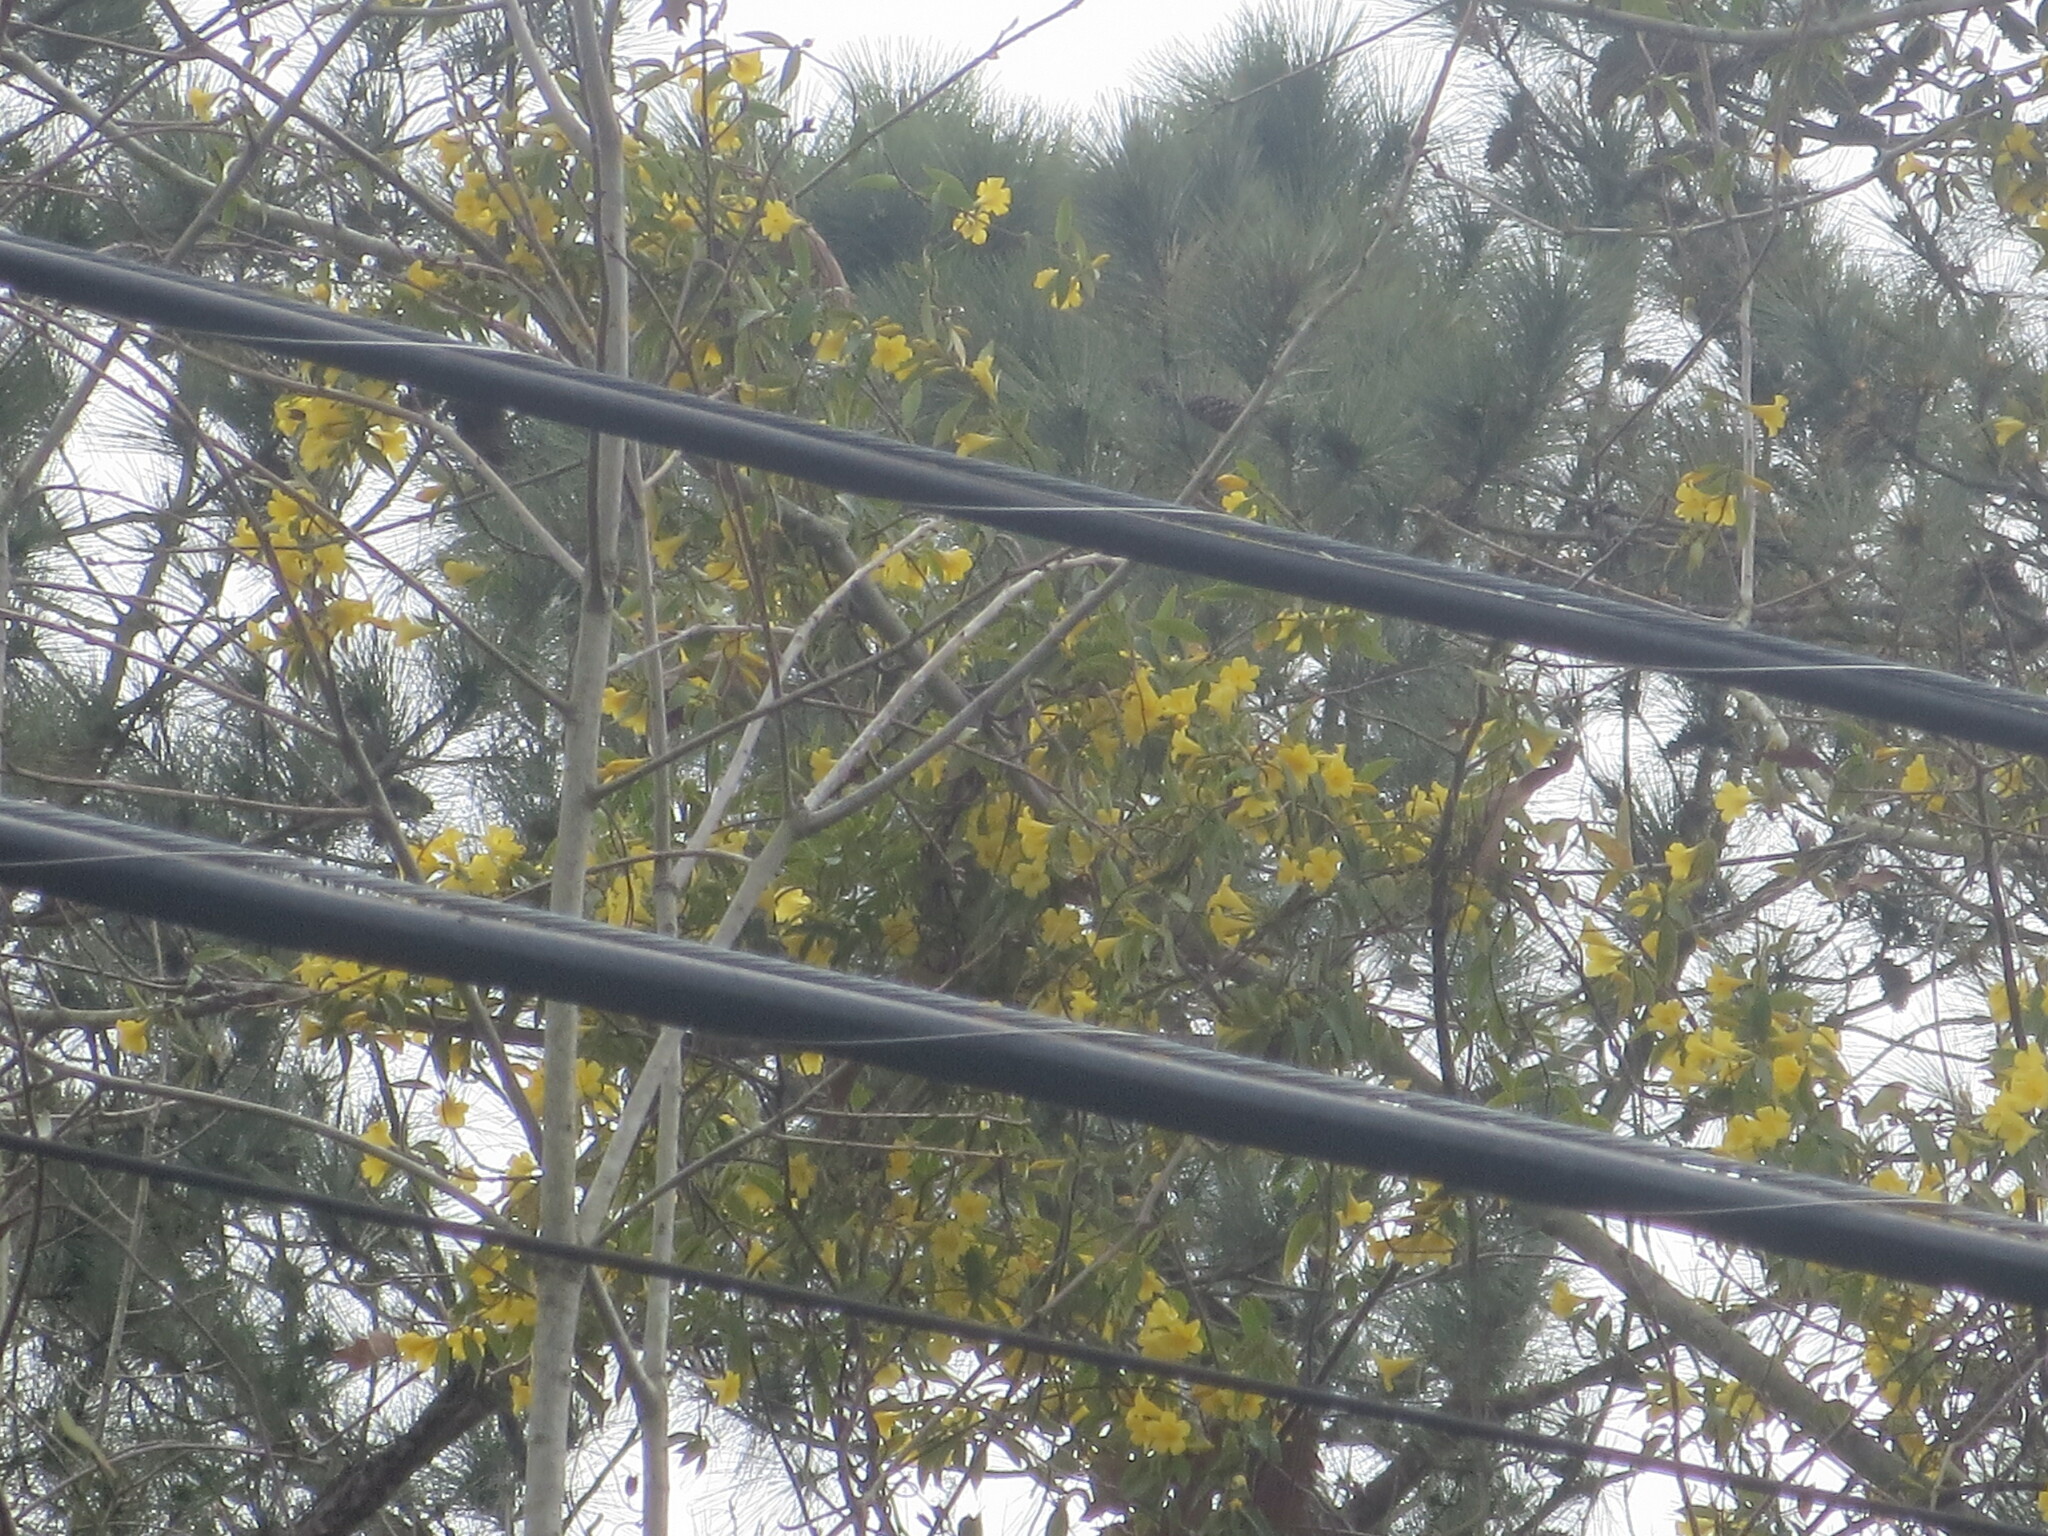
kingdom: Plantae
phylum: Tracheophyta
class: Magnoliopsida
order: Gentianales
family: Gelsemiaceae
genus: Gelsemium
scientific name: Gelsemium sempervirens
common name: Carolina-jasmine
